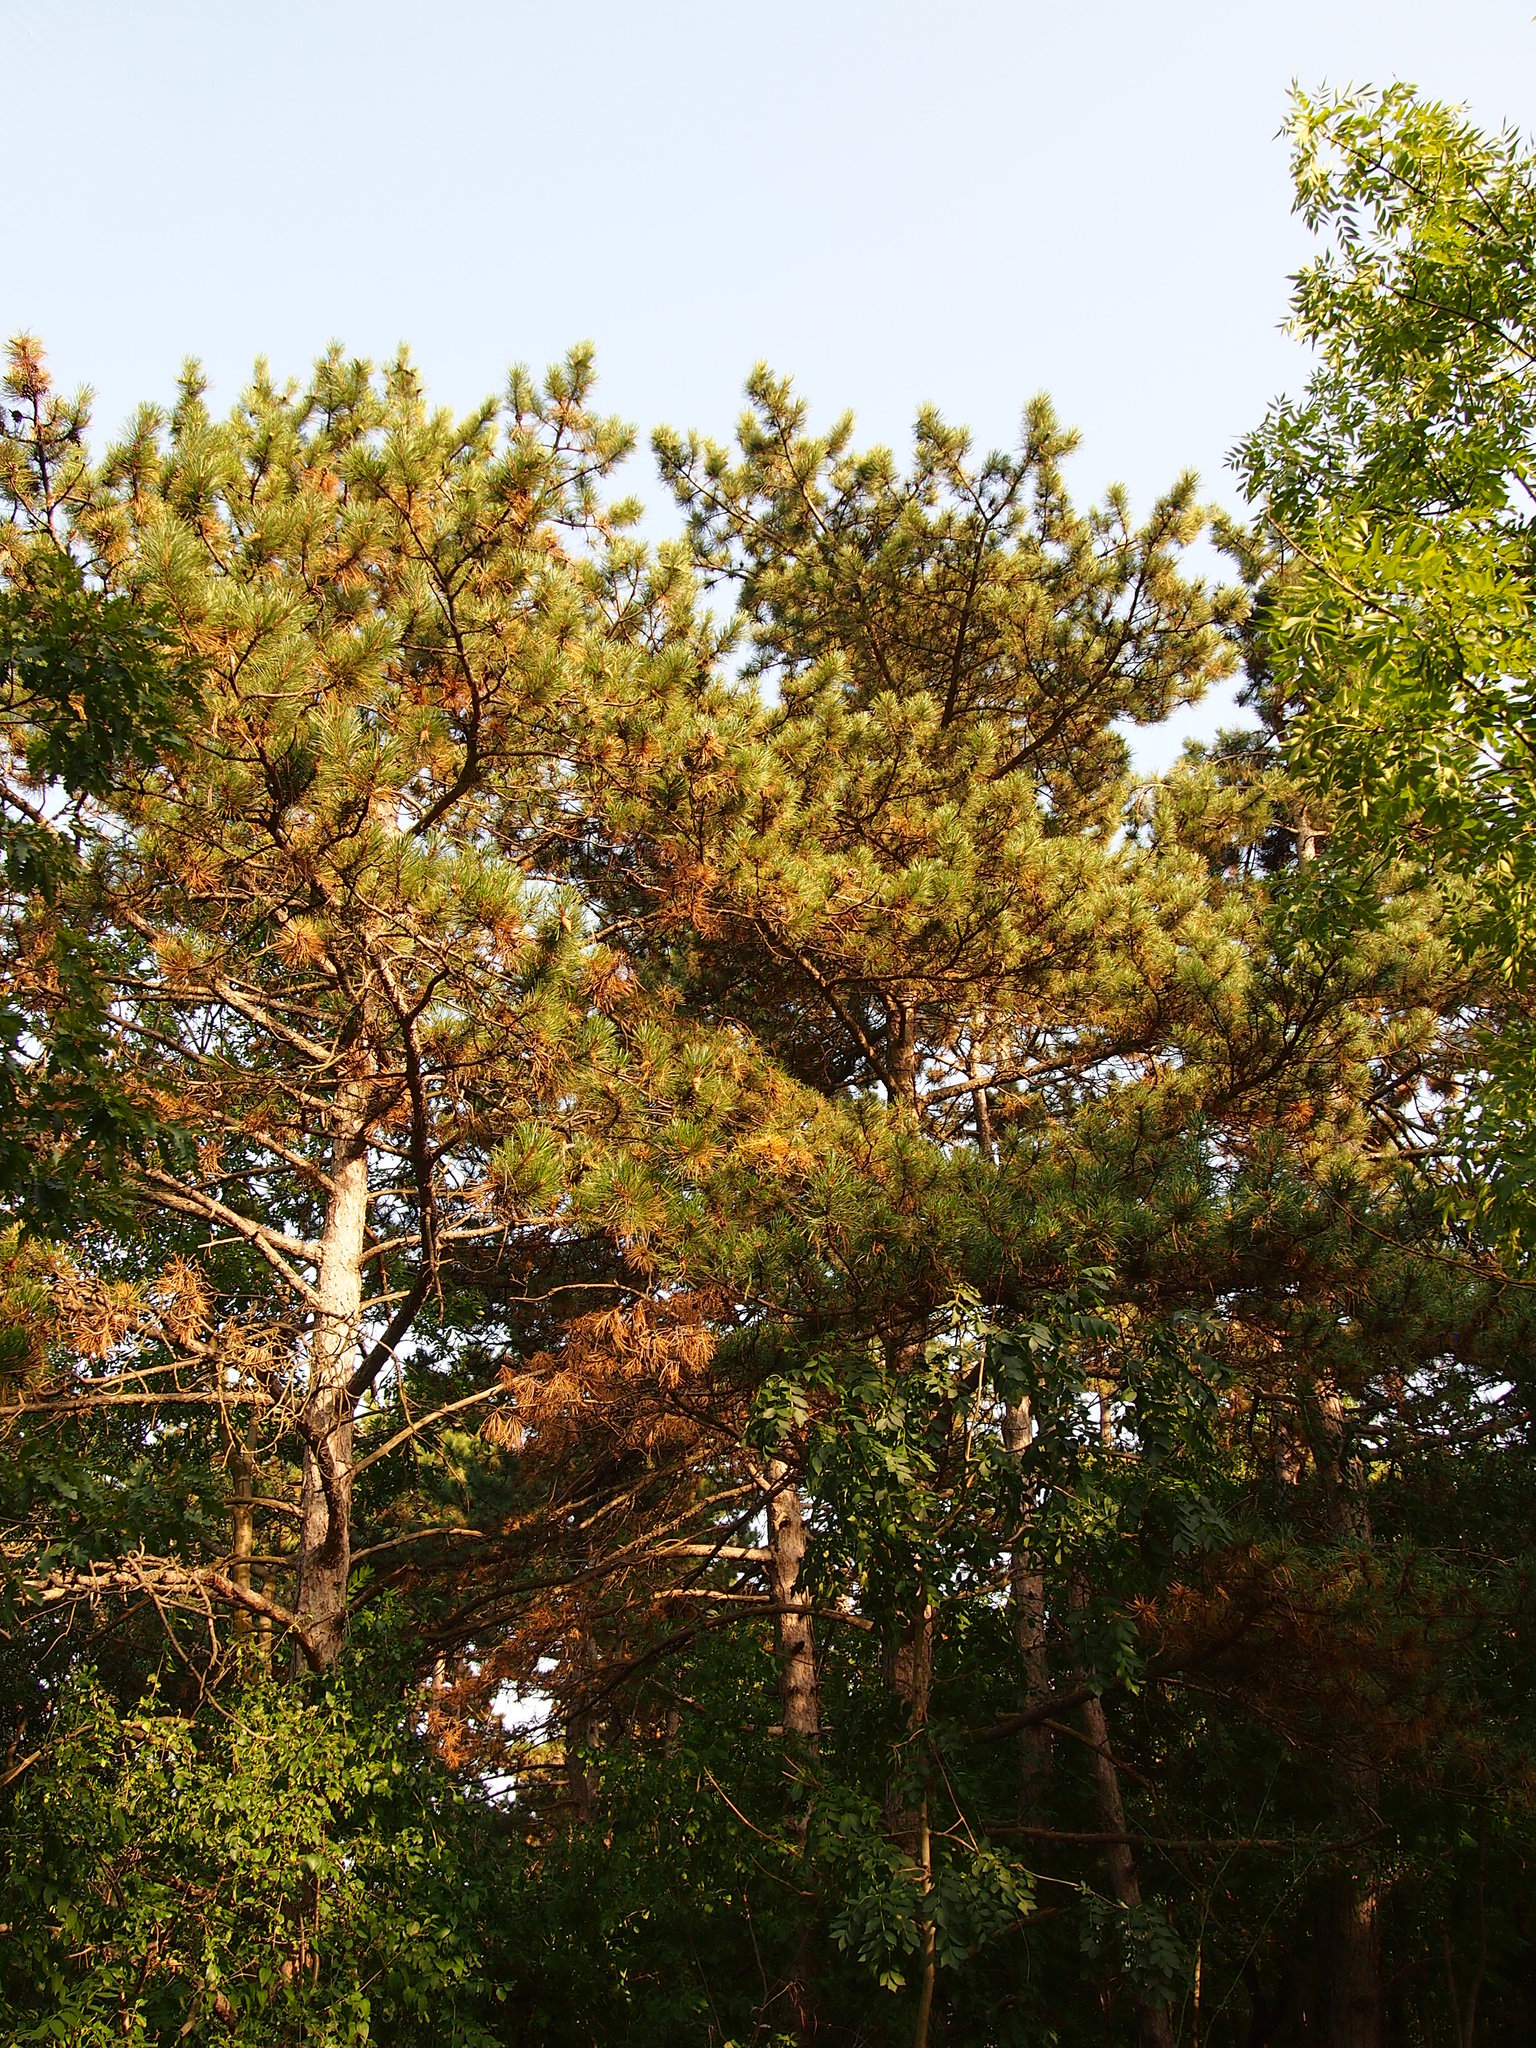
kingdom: Plantae
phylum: Tracheophyta
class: Pinopsida
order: Pinales
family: Pinaceae
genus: Pinus
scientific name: Pinus nigra
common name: Austrian pine
